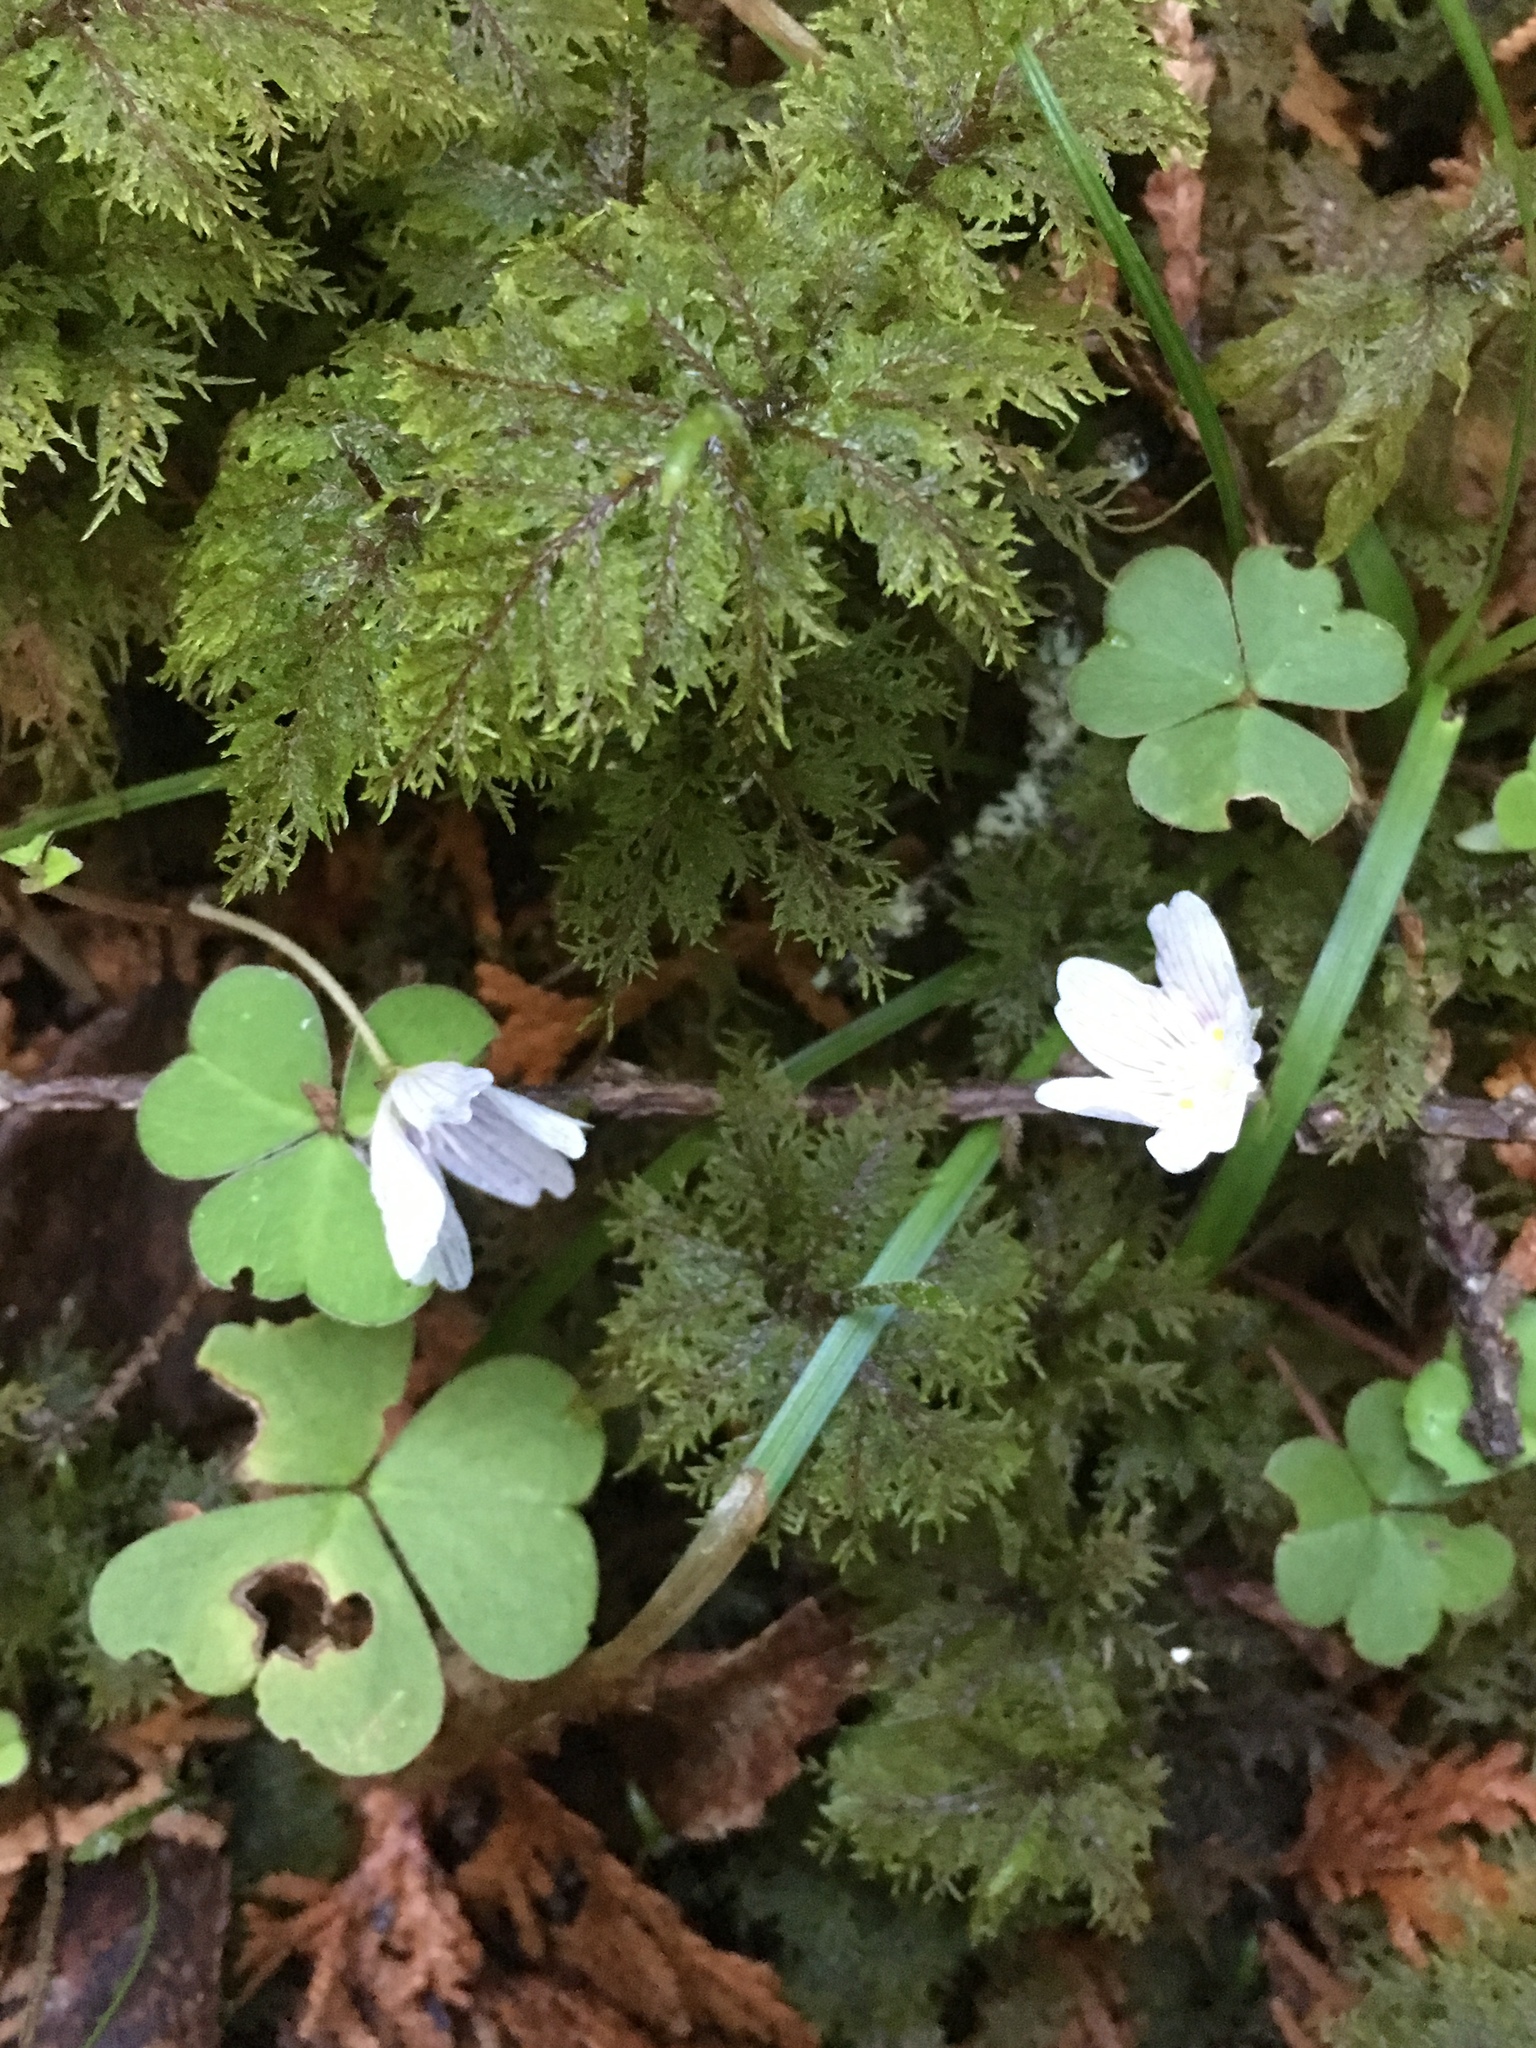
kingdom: Plantae
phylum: Tracheophyta
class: Magnoliopsida
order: Oxalidales
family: Oxalidaceae
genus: Oxalis
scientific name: Oxalis montana
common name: American wood-sorrel
